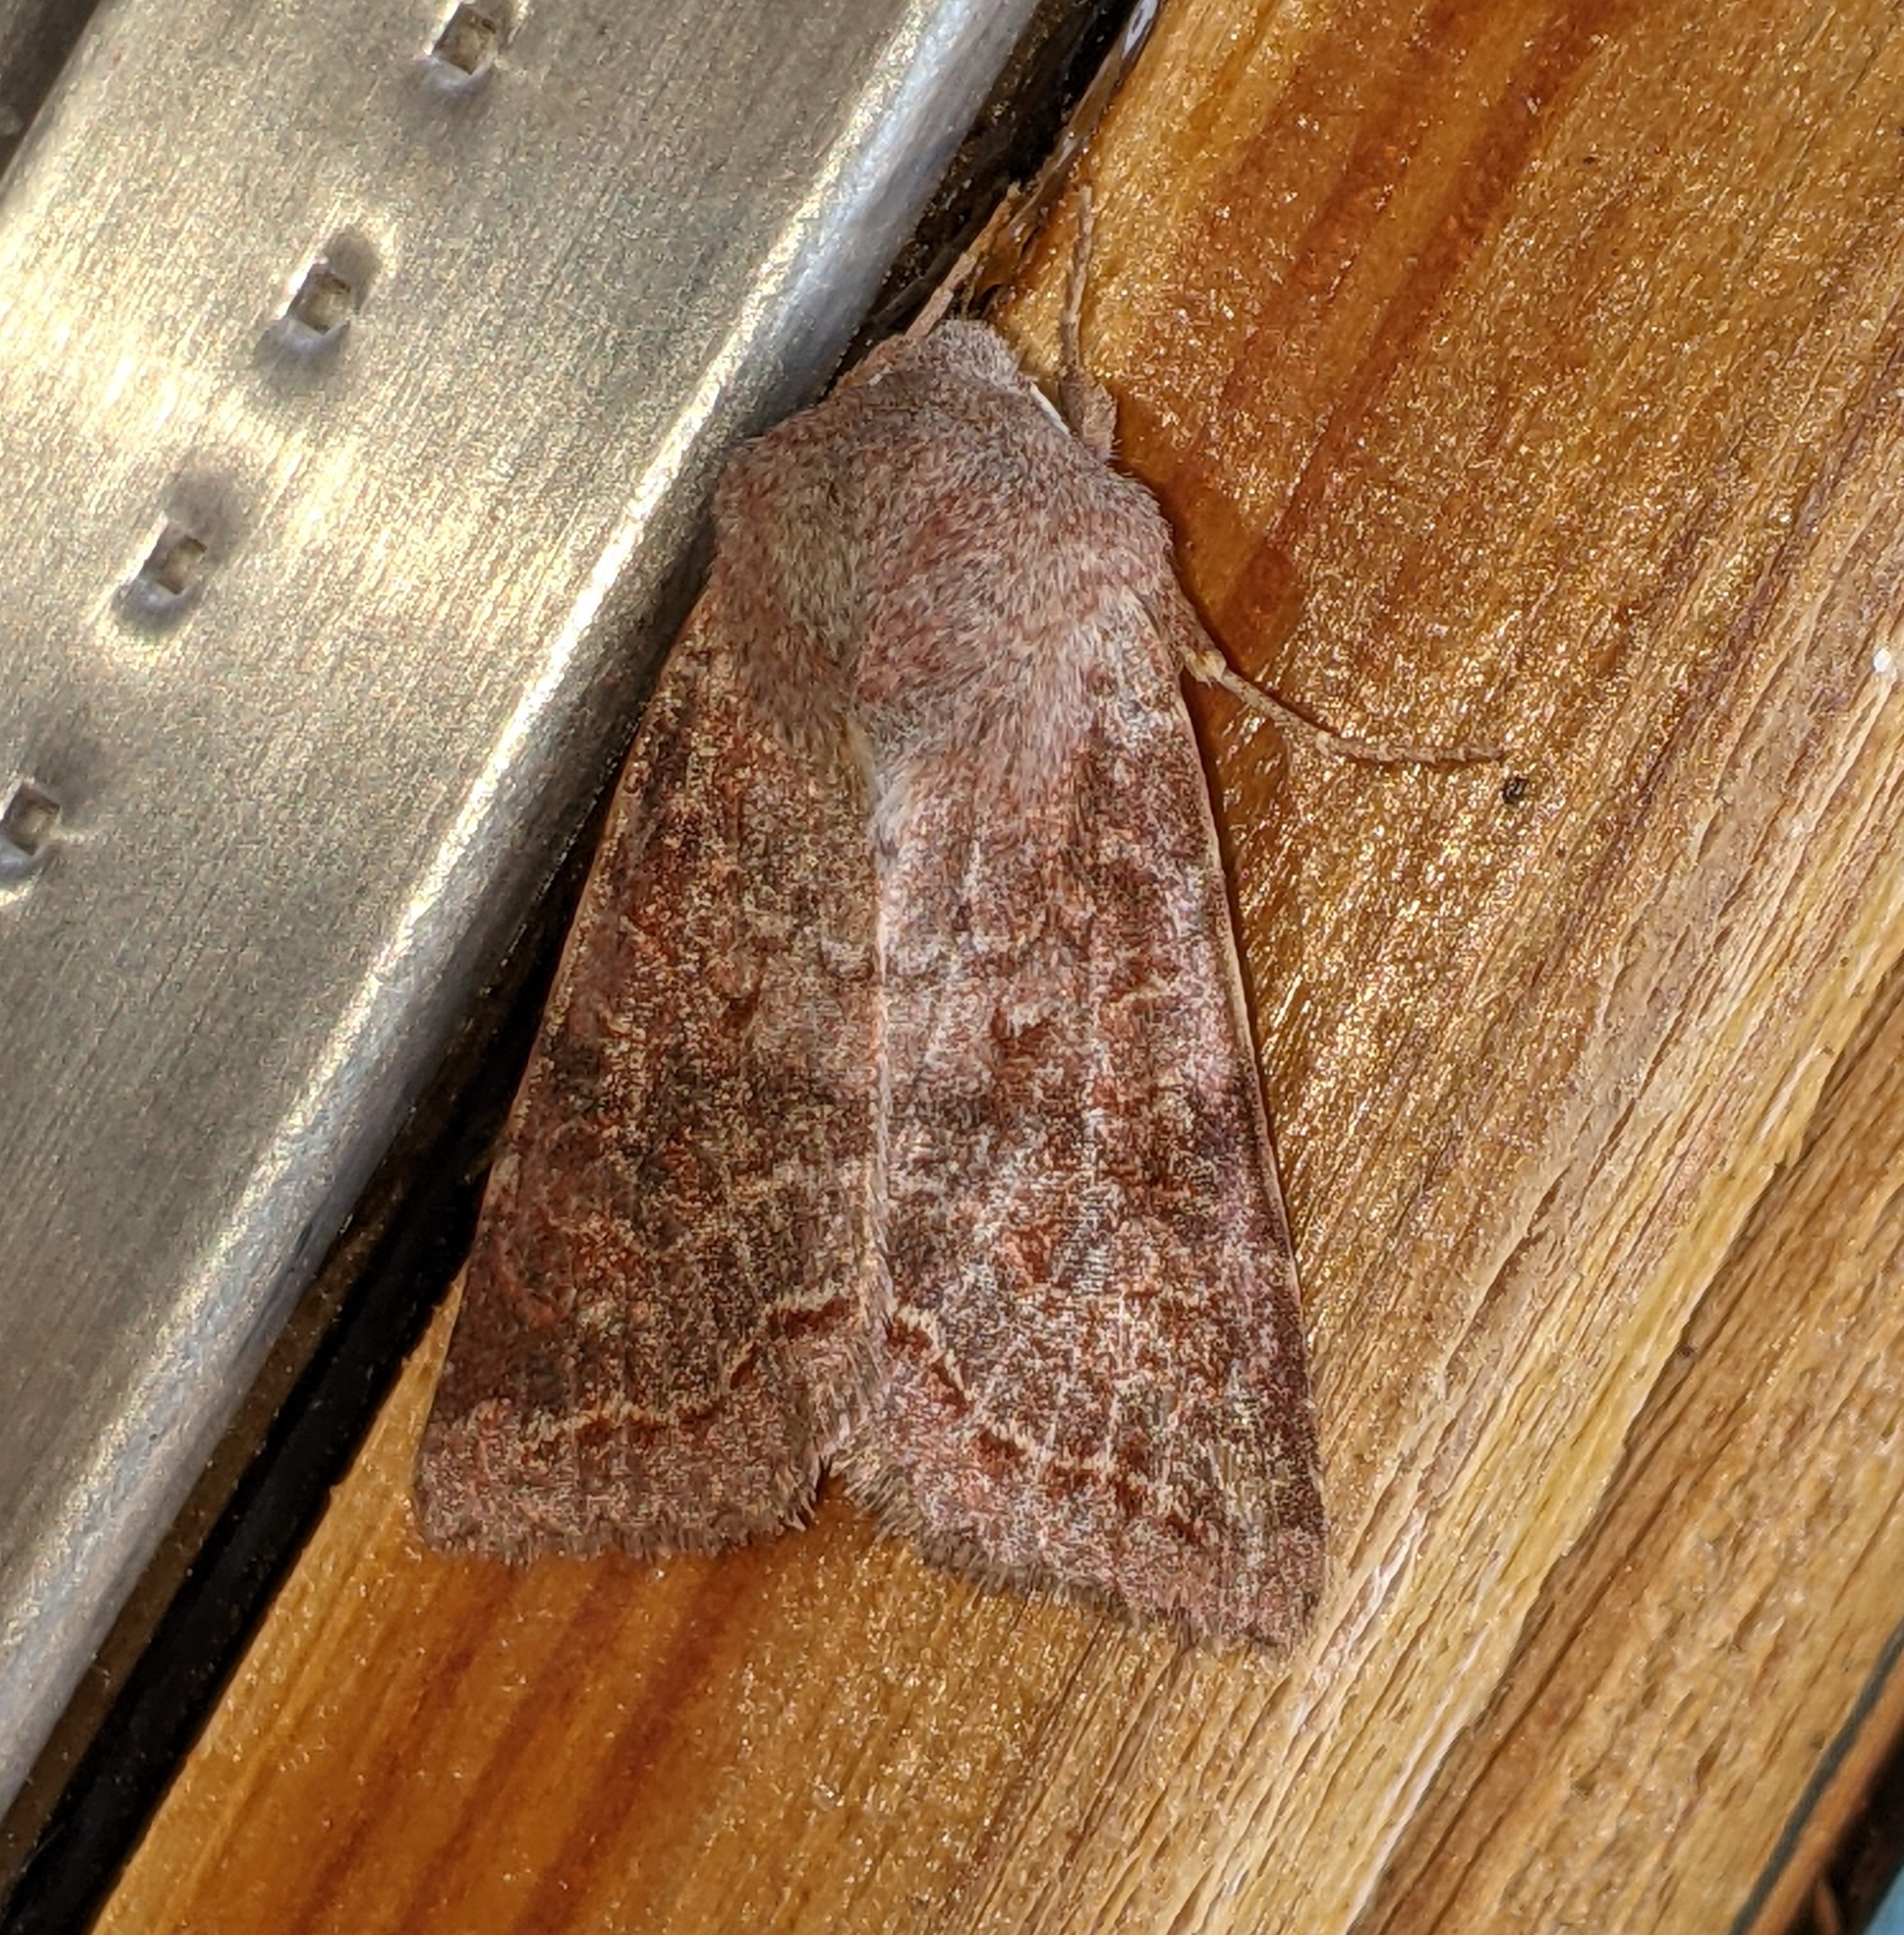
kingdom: Animalia
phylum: Arthropoda
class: Insecta
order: Lepidoptera
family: Noctuidae
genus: Orthosia
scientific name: Orthosia revicta
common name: Rusty whitesided caterpillar
